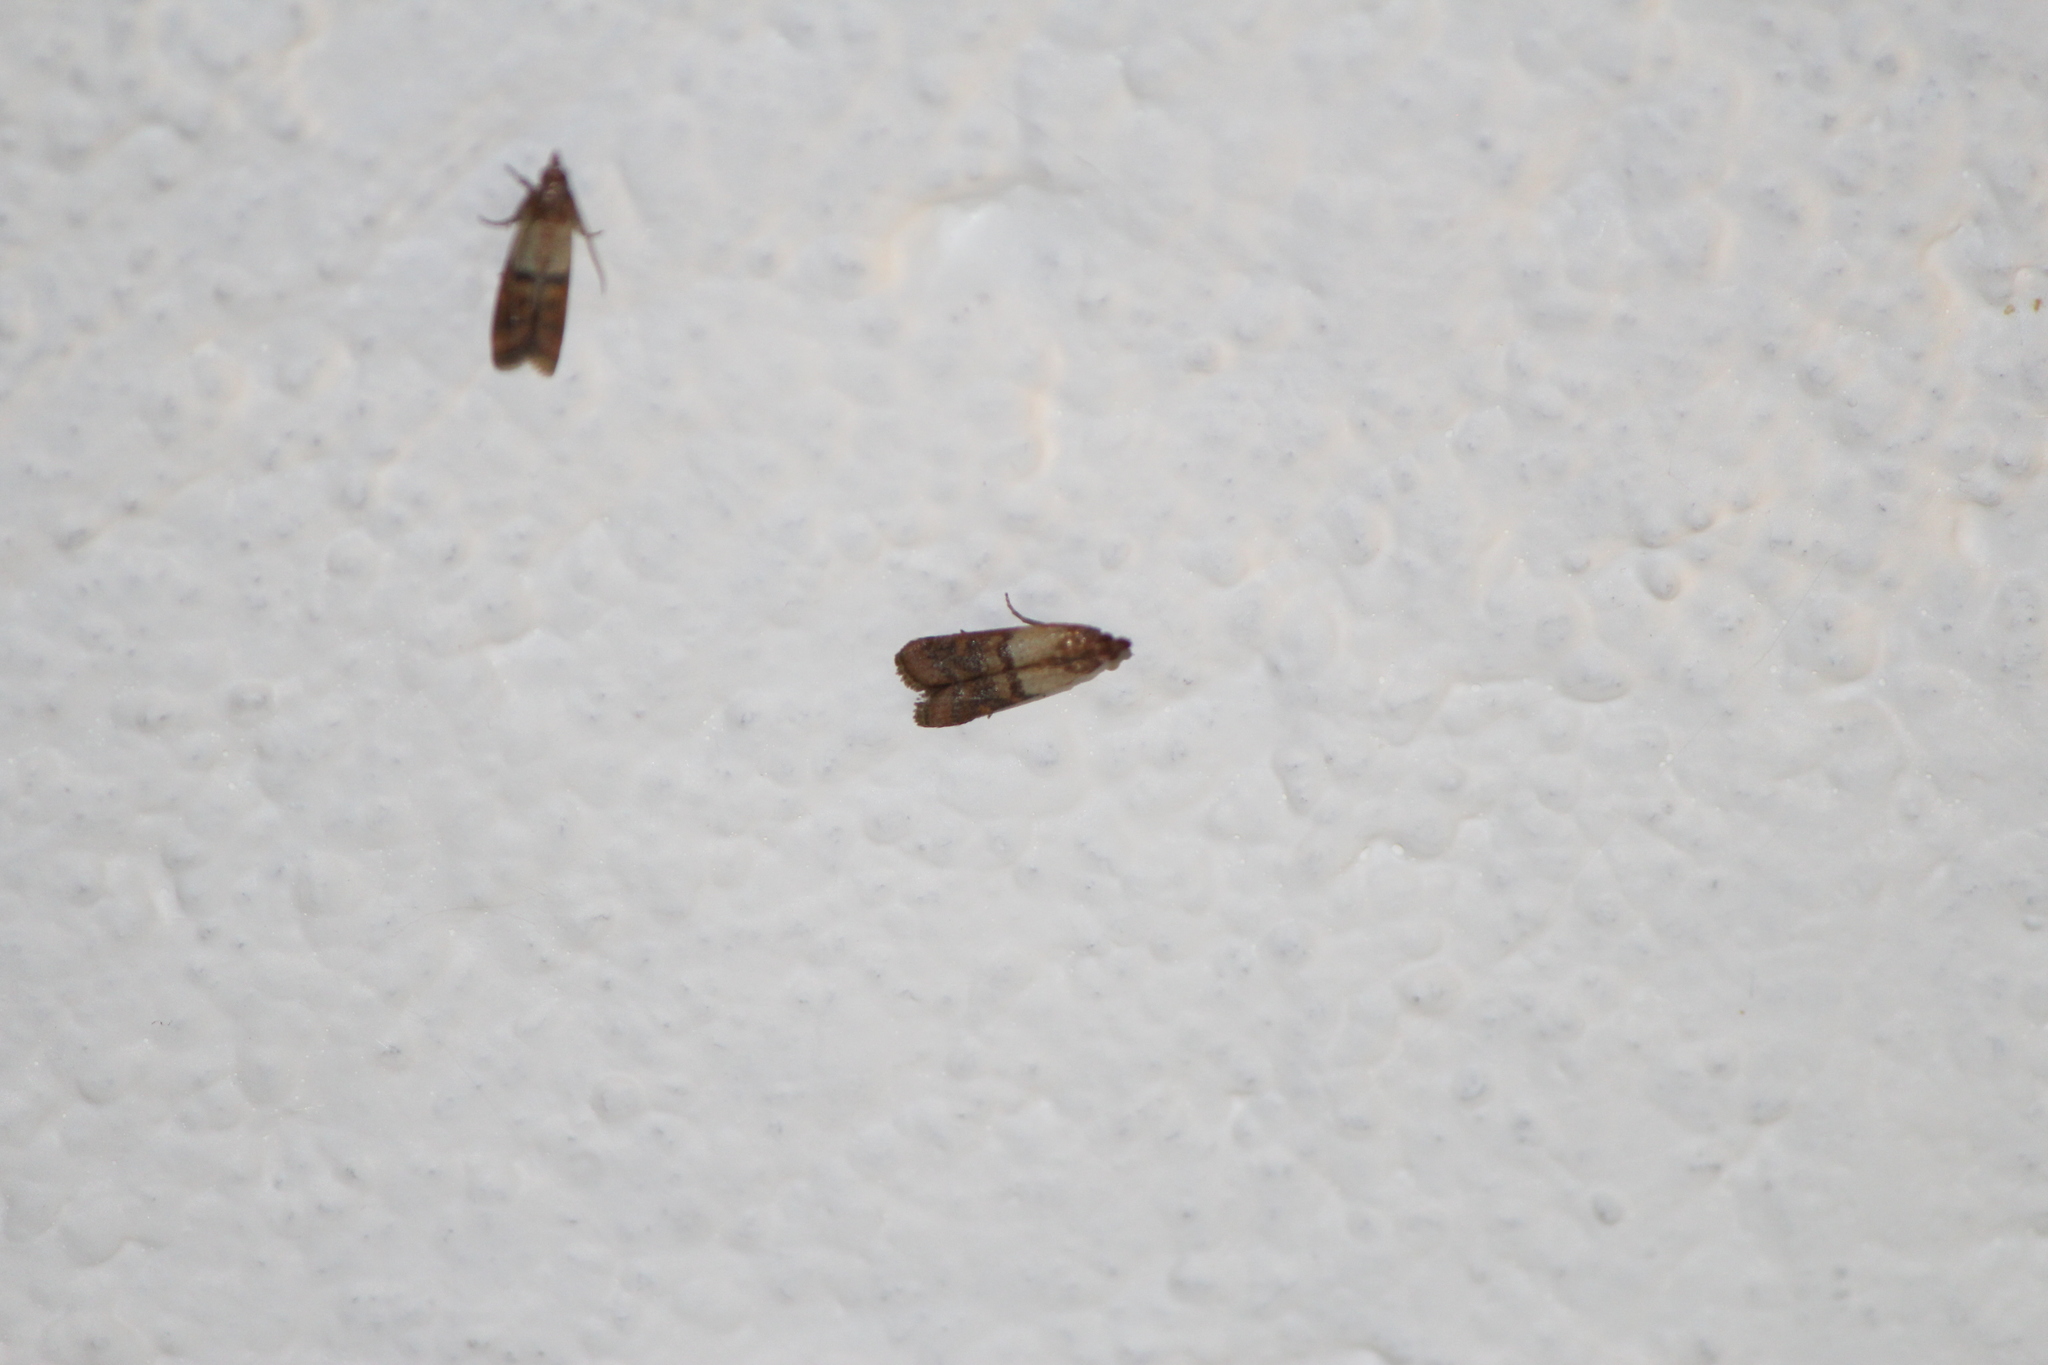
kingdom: Animalia
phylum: Arthropoda
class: Insecta
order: Lepidoptera
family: Pyralidae
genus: Plodia
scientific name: Plodia interpunctella
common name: Indian meal moth
